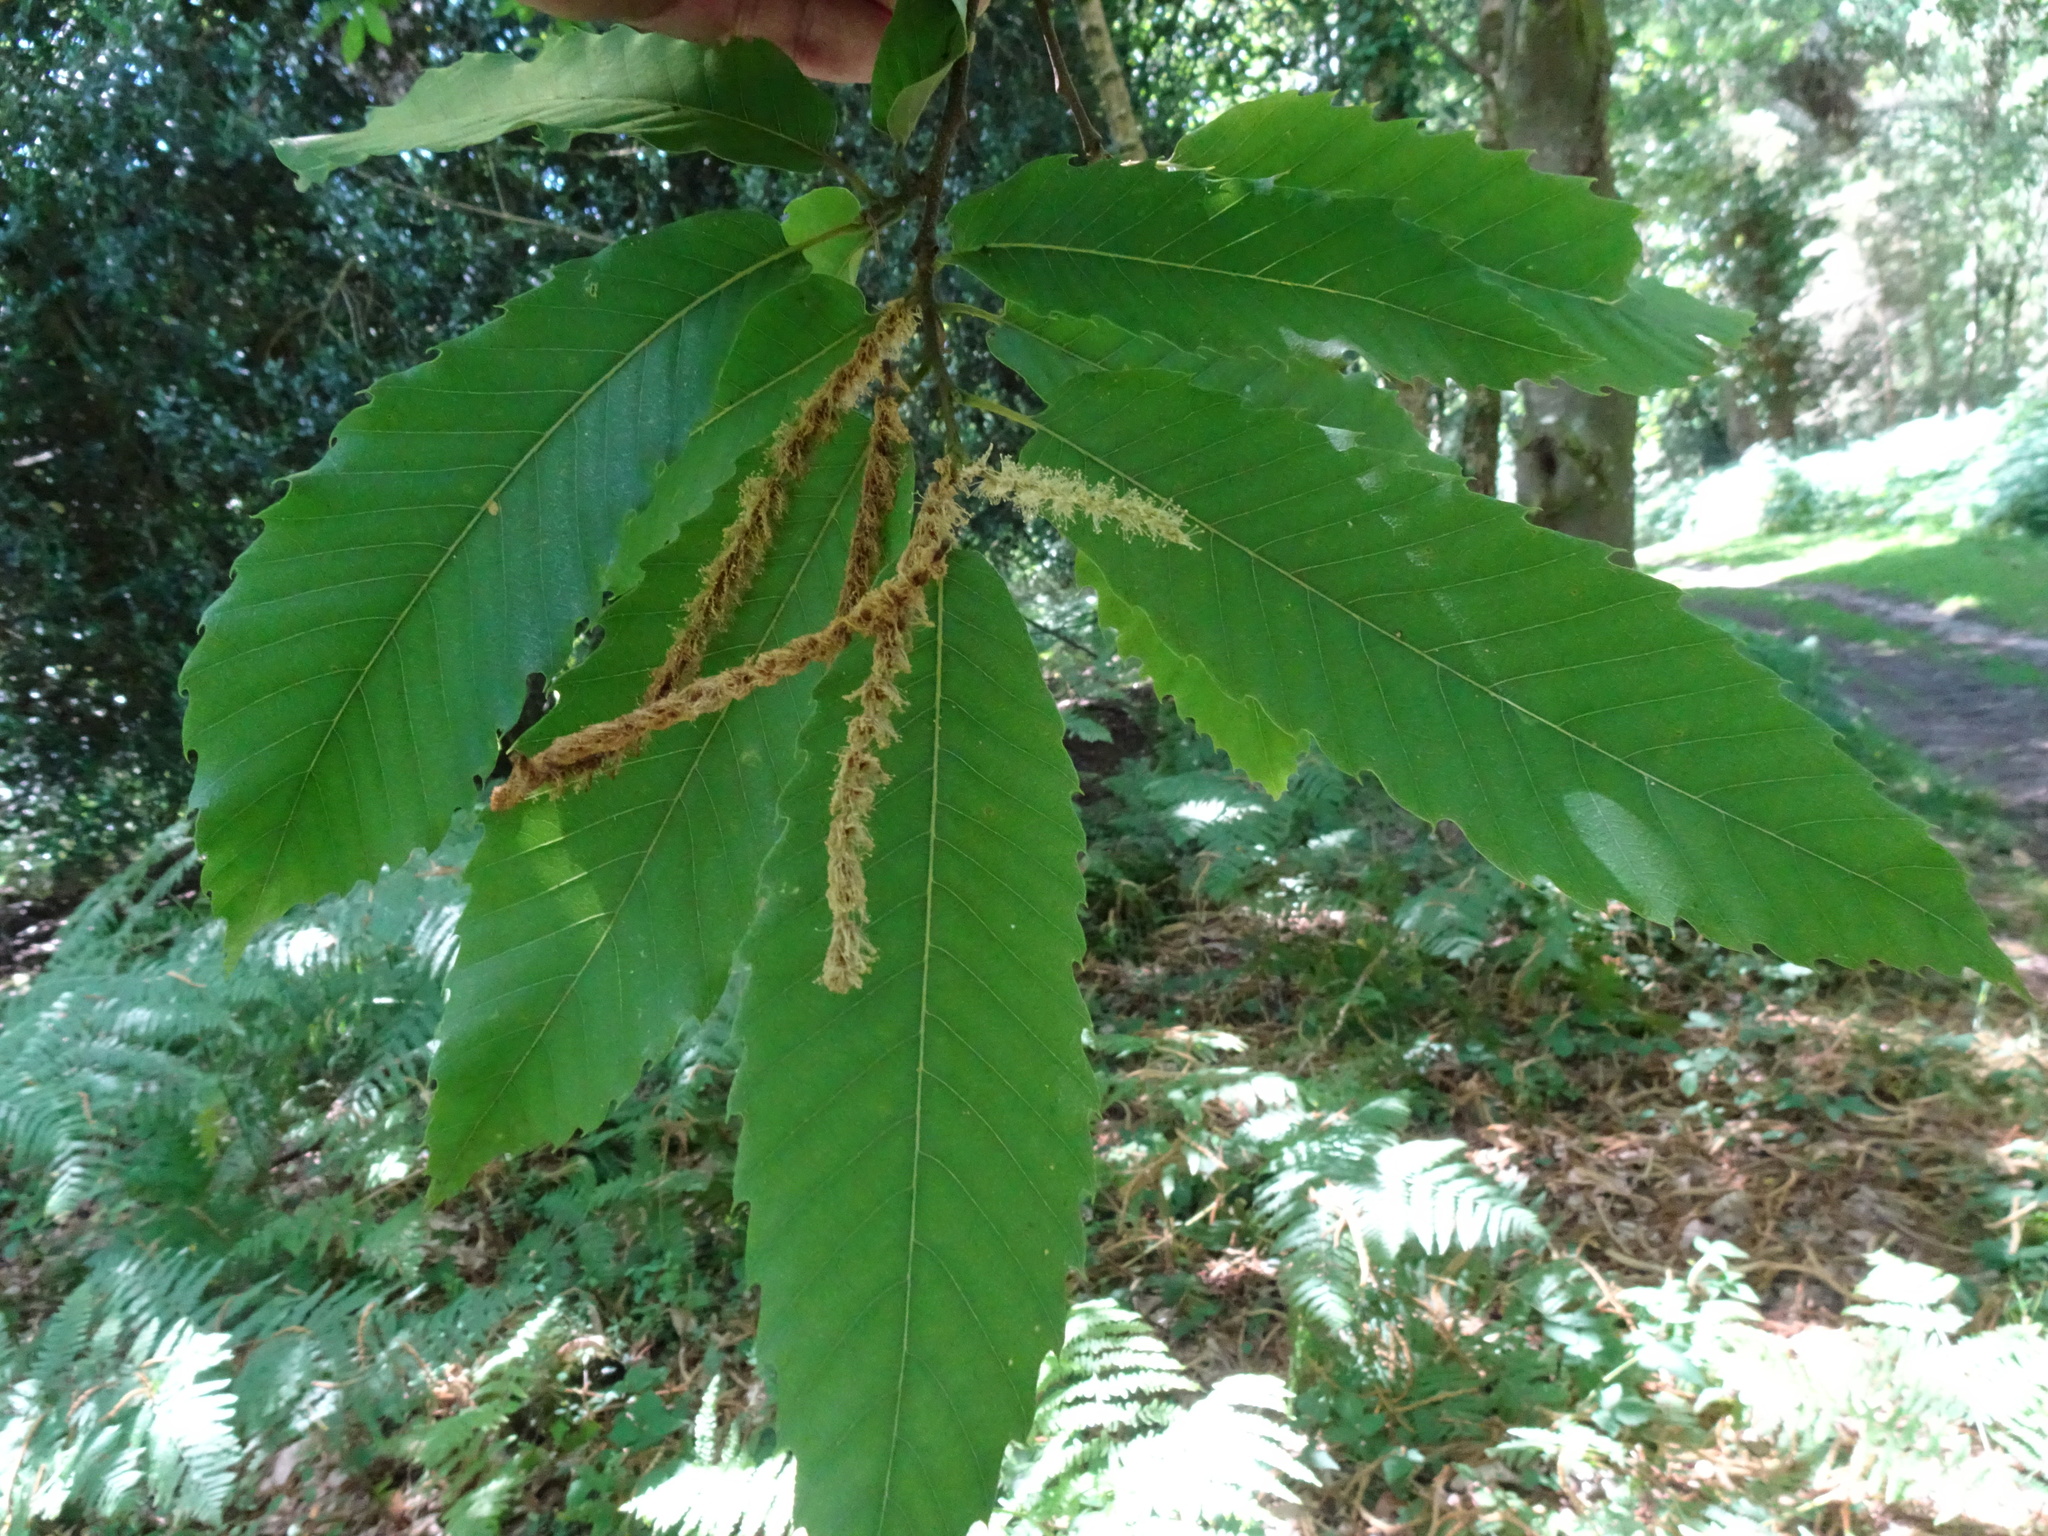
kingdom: Plantae
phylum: Tracheophyta
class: Magnoliopsida
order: Fagales
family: Fagaceae
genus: Castanea
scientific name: Castanea sativa
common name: Sweet chestnut
